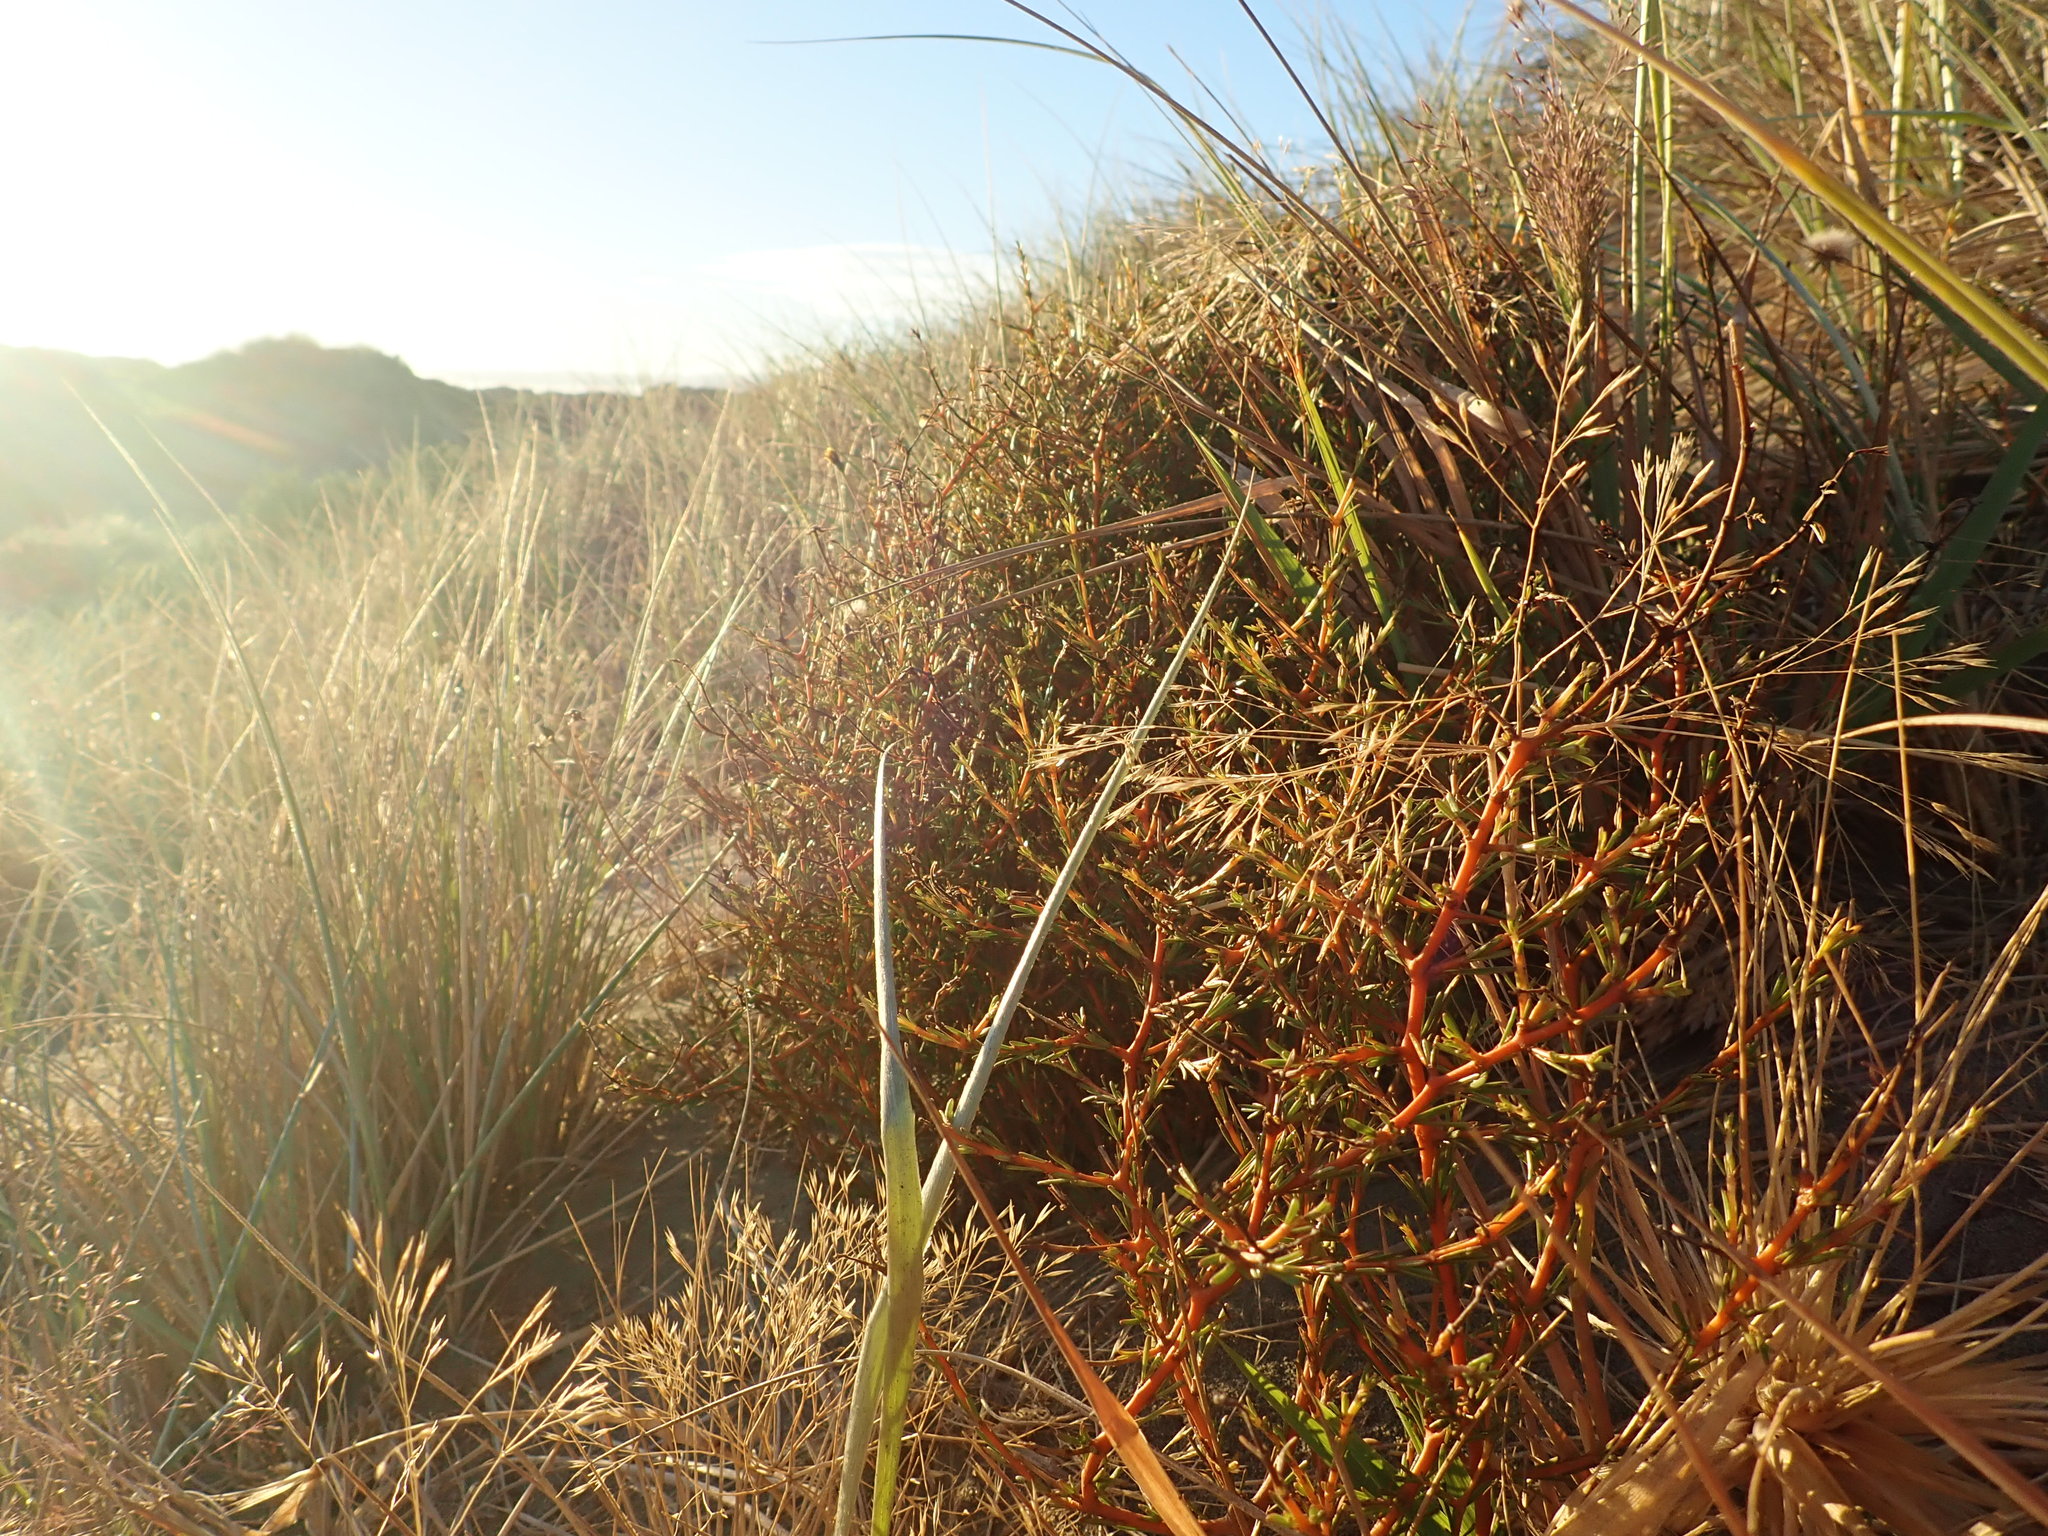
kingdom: Plantae
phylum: Tracheophyta
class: Magnoliopsida
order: Gentianales
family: Rubiaceae
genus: Coprosma
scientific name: Coprosma acerosa
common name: Sand coprosma
